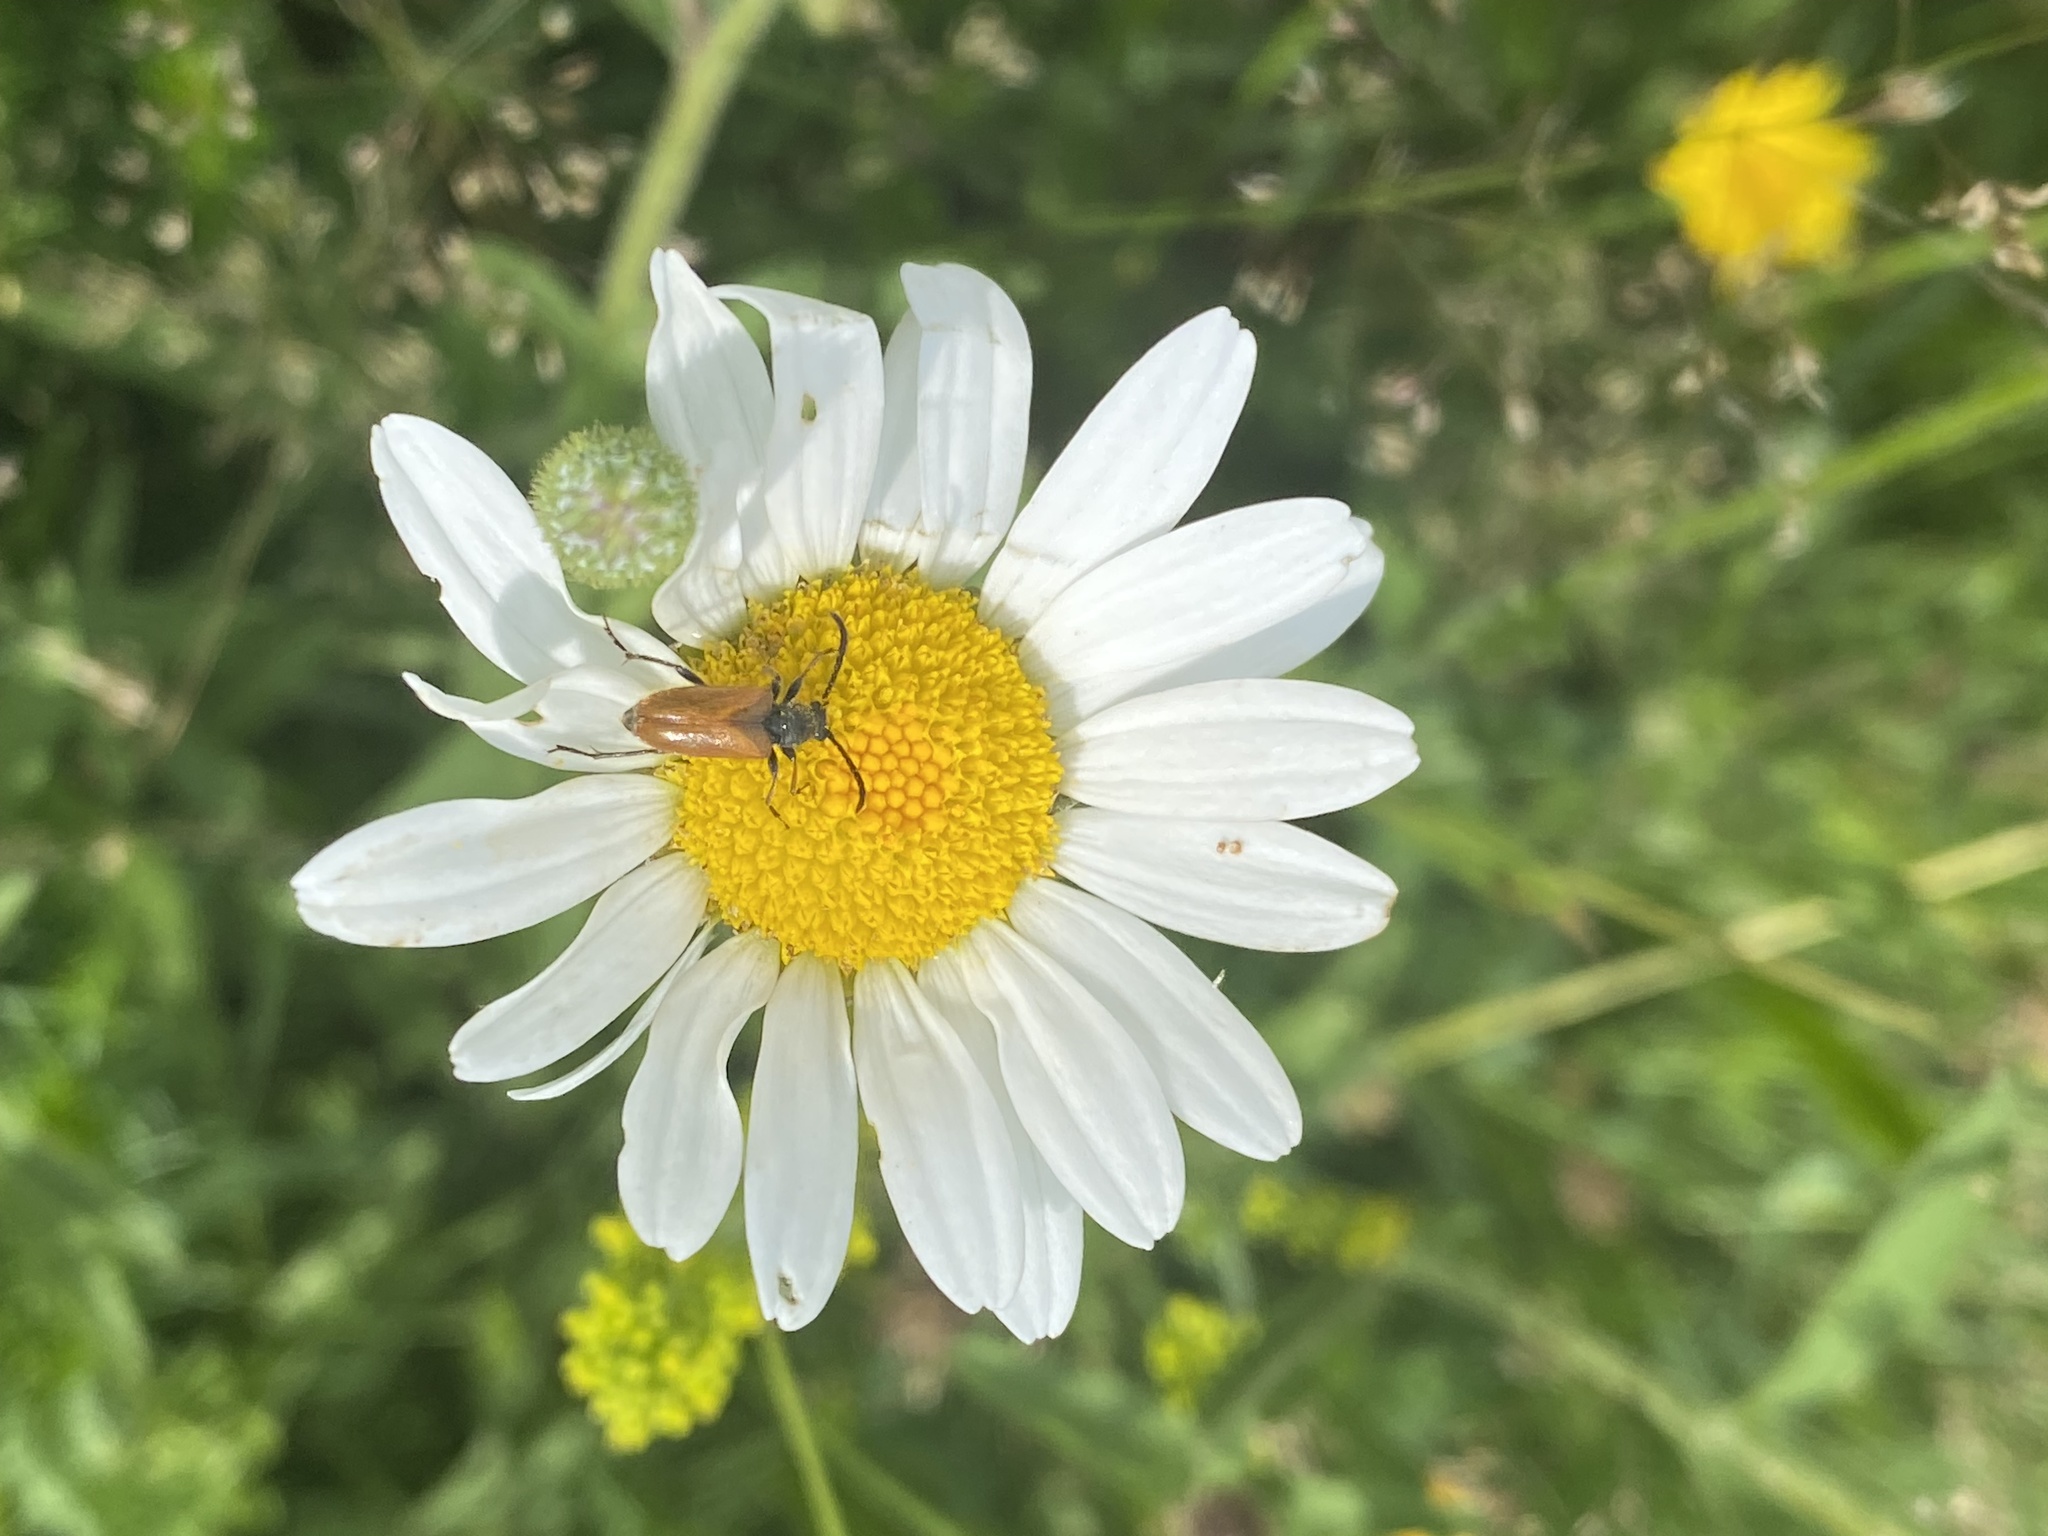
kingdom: Animalia
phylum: Arthropoda
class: Insecta
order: Coleoptera
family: Cerambycidae
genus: Pseudovadonia
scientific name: Pseudovadonia livida
